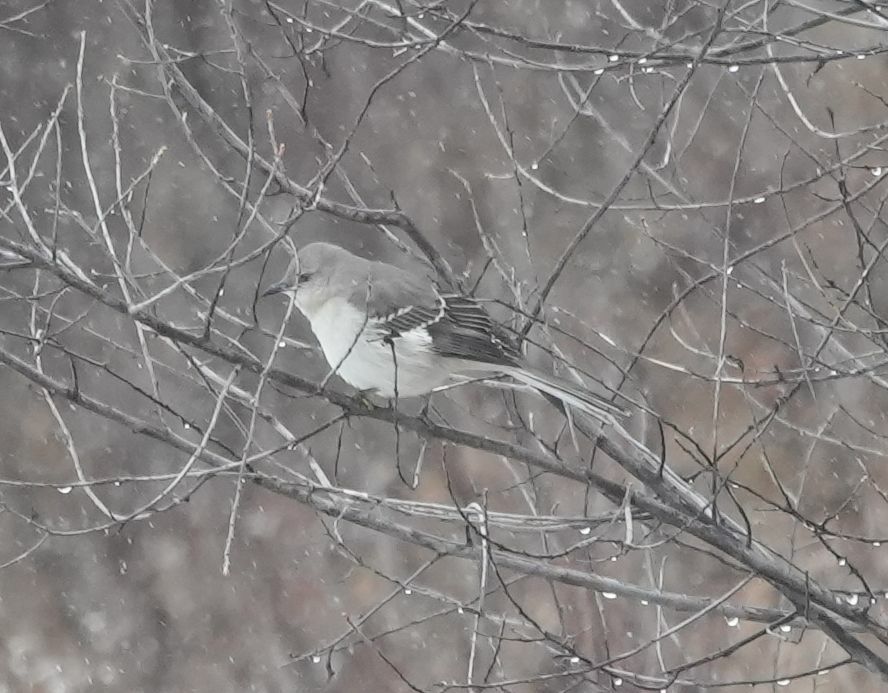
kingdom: Animalia
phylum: Chordata
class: Aves
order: Passeriformes
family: Mimidae
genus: Mimus
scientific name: Mimus polyglottos
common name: Northern mockingbird
